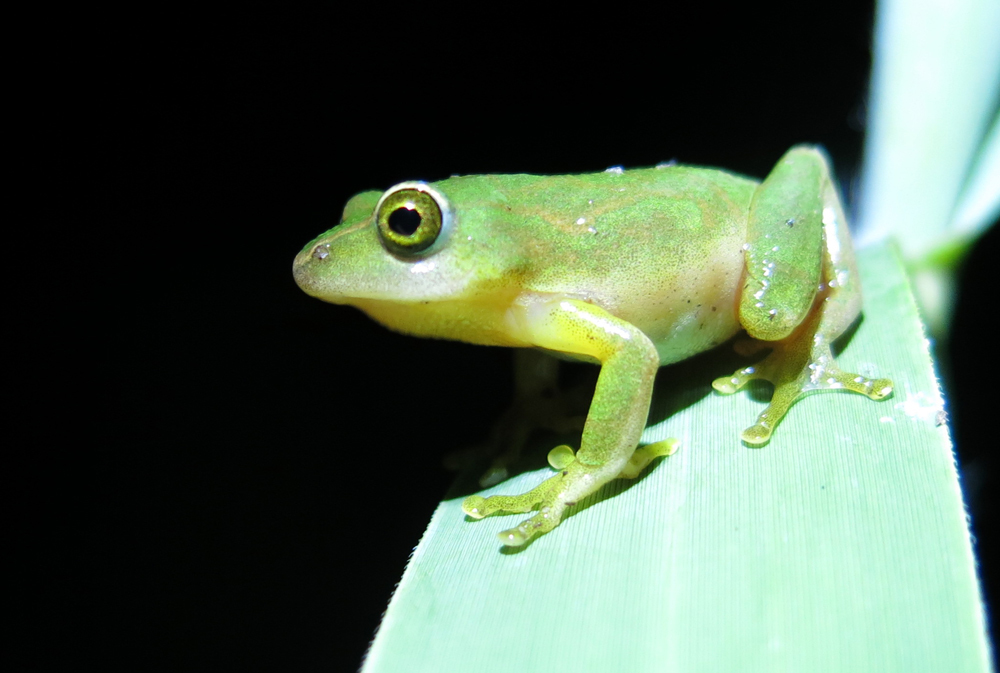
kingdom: Animalia
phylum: Chordata
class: Amphibia
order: Anura
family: Hyperoliidae
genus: Hyperolius
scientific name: Hyperolius tuberilinguis
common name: Tinker reed frog
